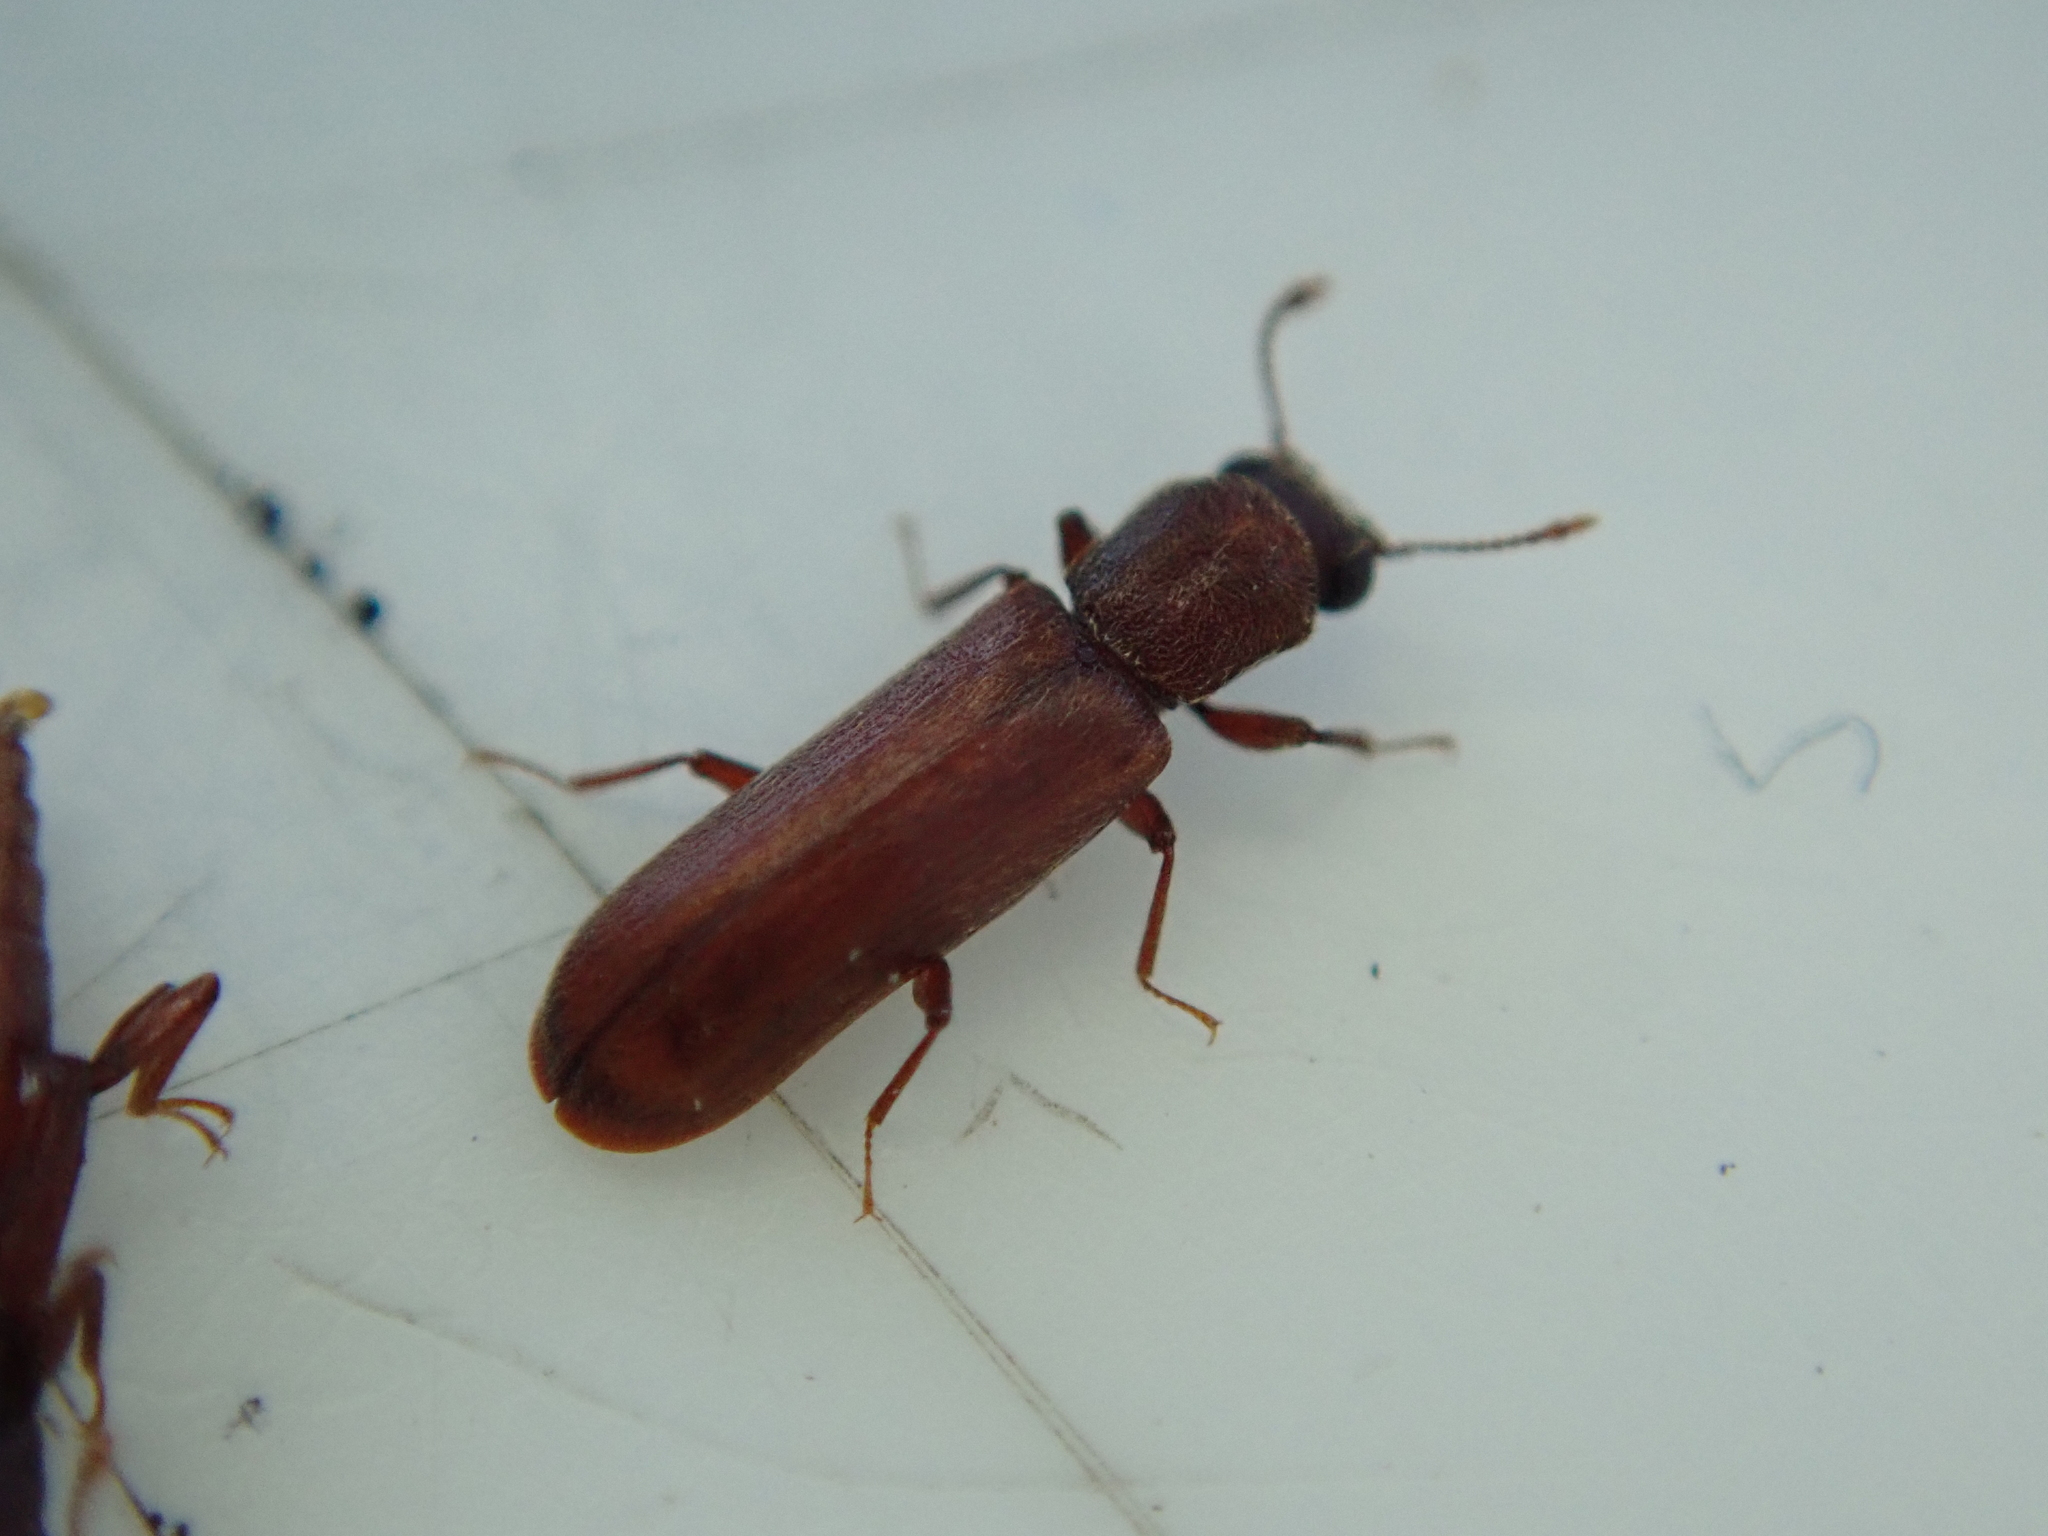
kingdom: Animalia
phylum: Arthropoda
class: Insecta
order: Coleoptera
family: Bostrichidae
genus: Lyctus
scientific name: Lyctus brunneus
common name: Brown powderpost beetle
